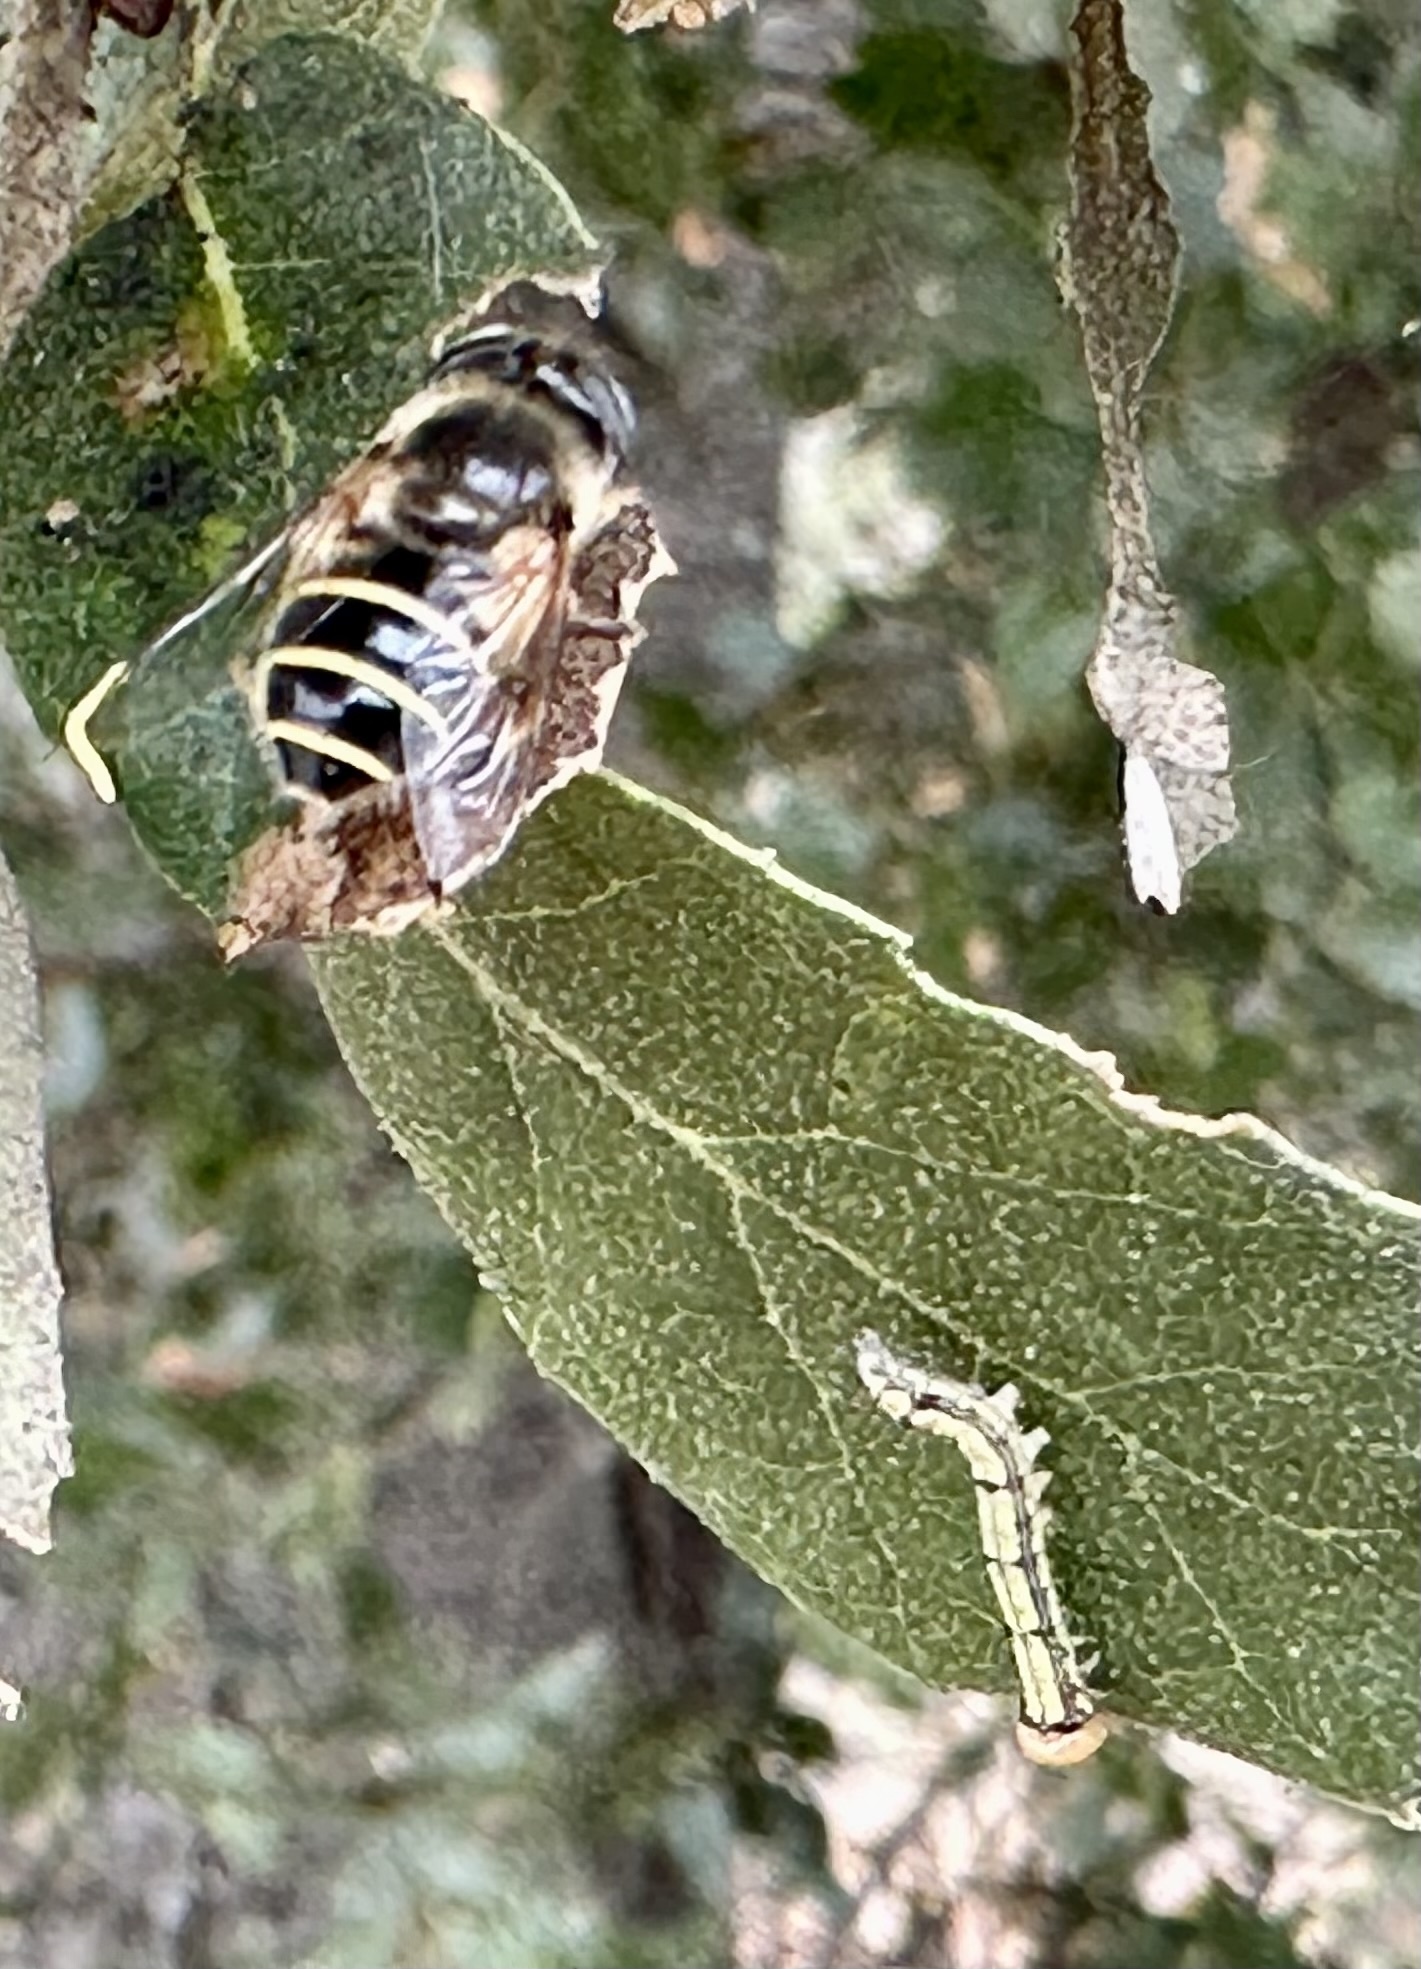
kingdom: Animalia
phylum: Arthropoda
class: Insecta
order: Diptera
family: Syrphidae
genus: Eristalis
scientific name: Eristalis hirta
